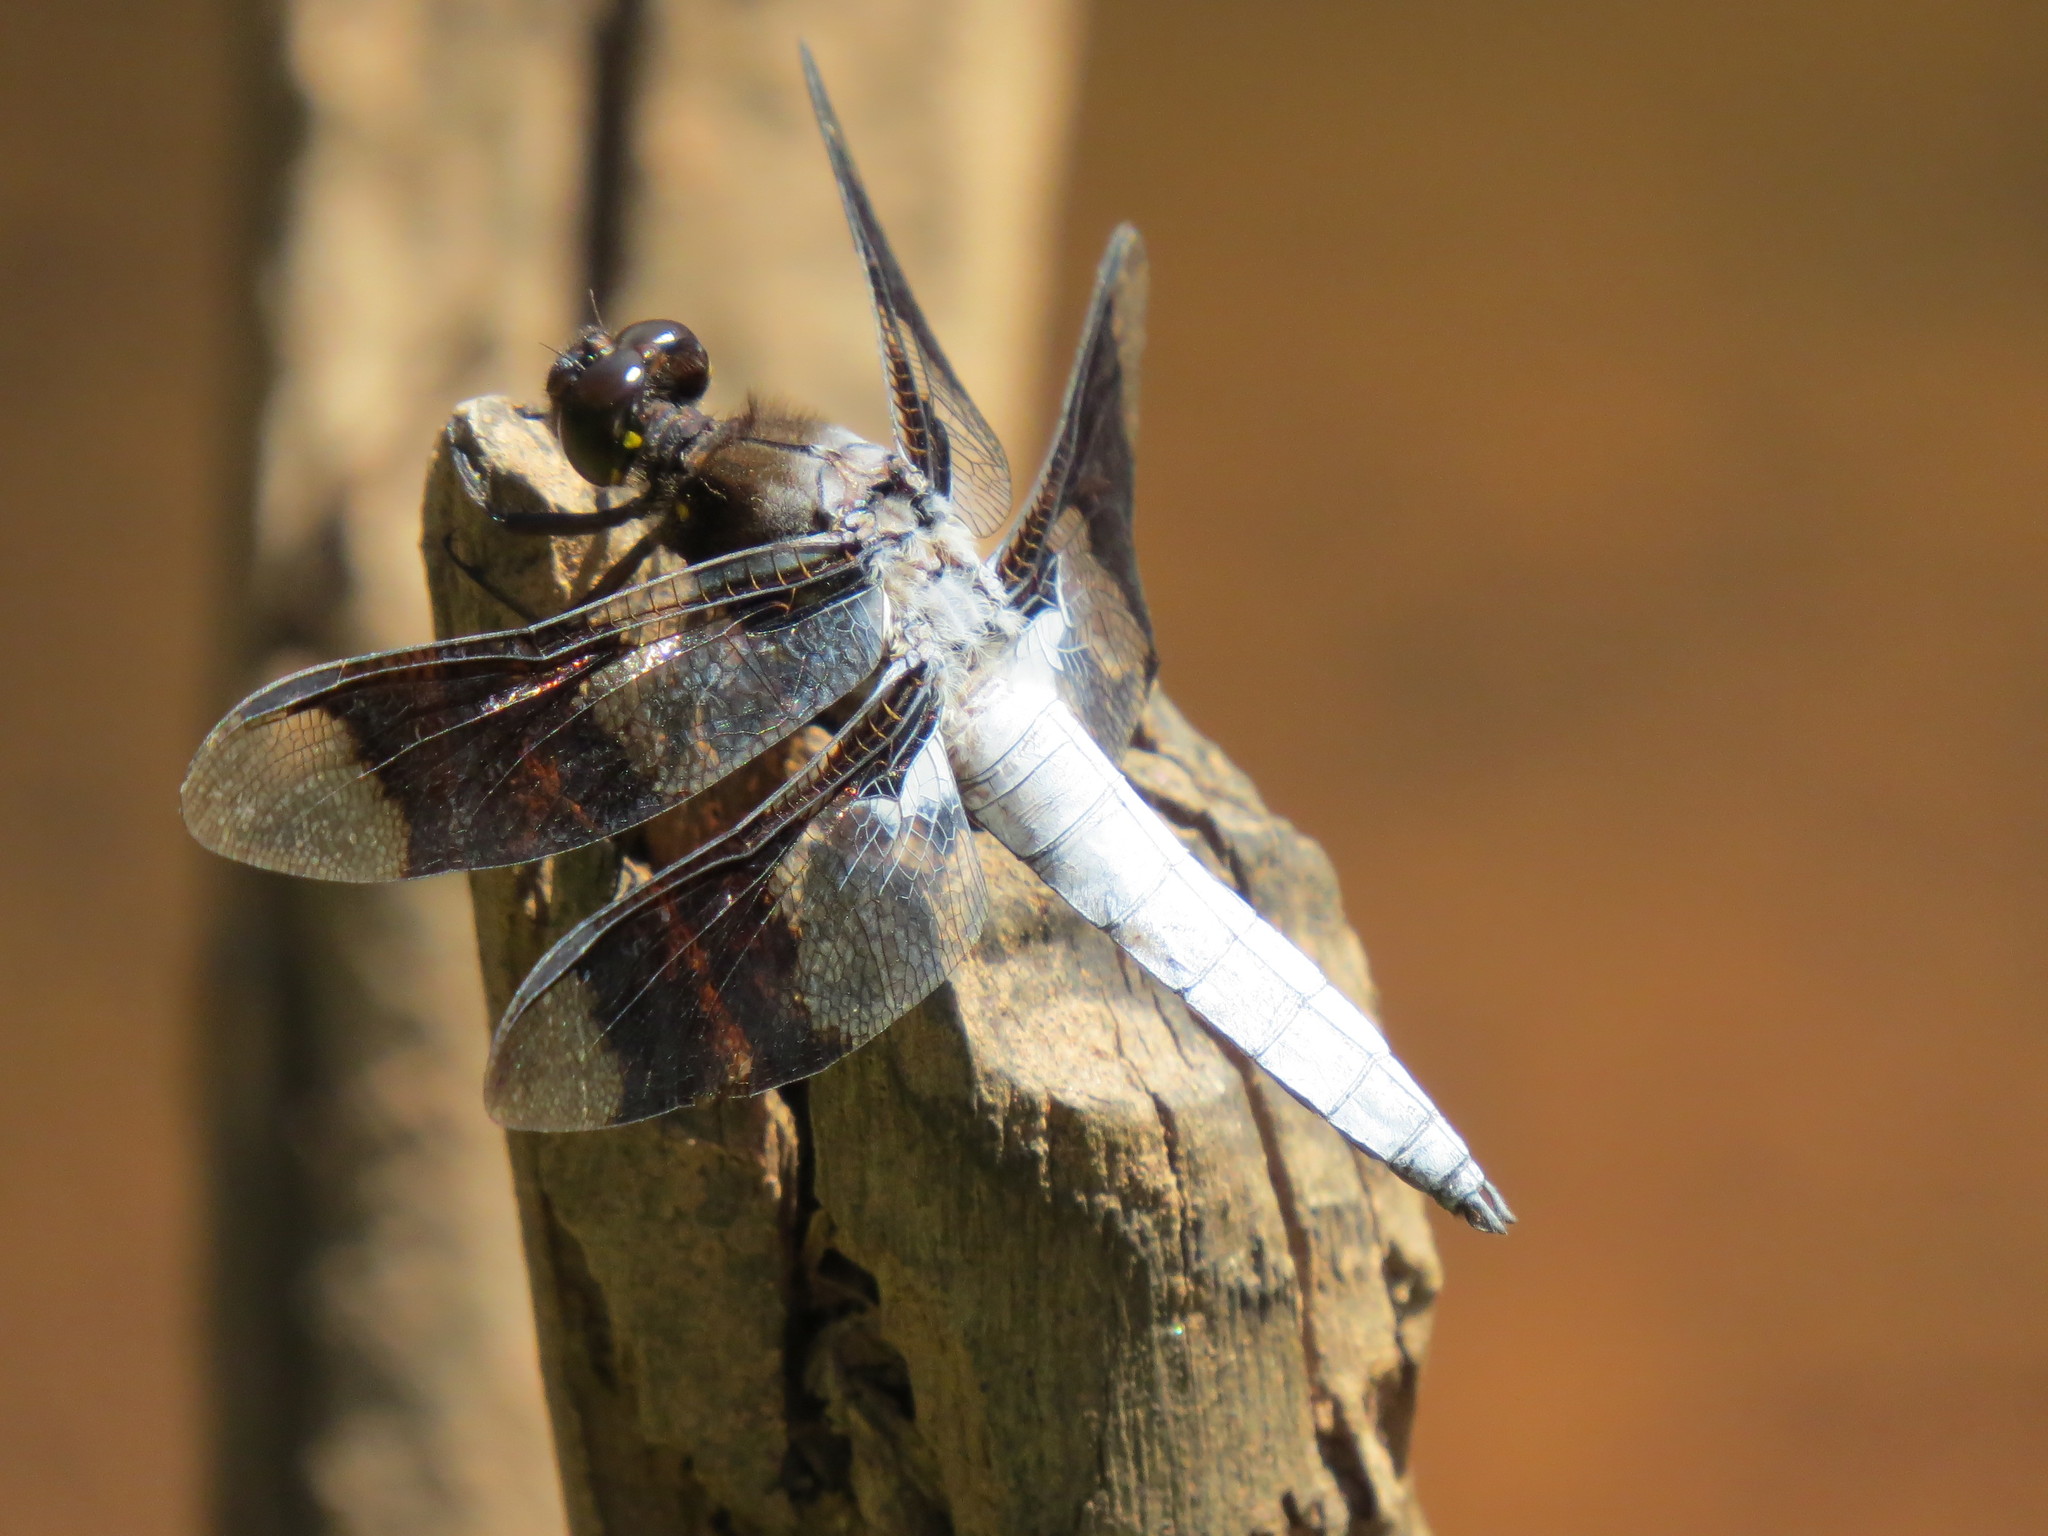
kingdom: Animalia
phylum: Arthropoda
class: Insecta
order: Odonata
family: Libellulidae
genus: Plathemis
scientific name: Plathemis lydia
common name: Common whitetail
